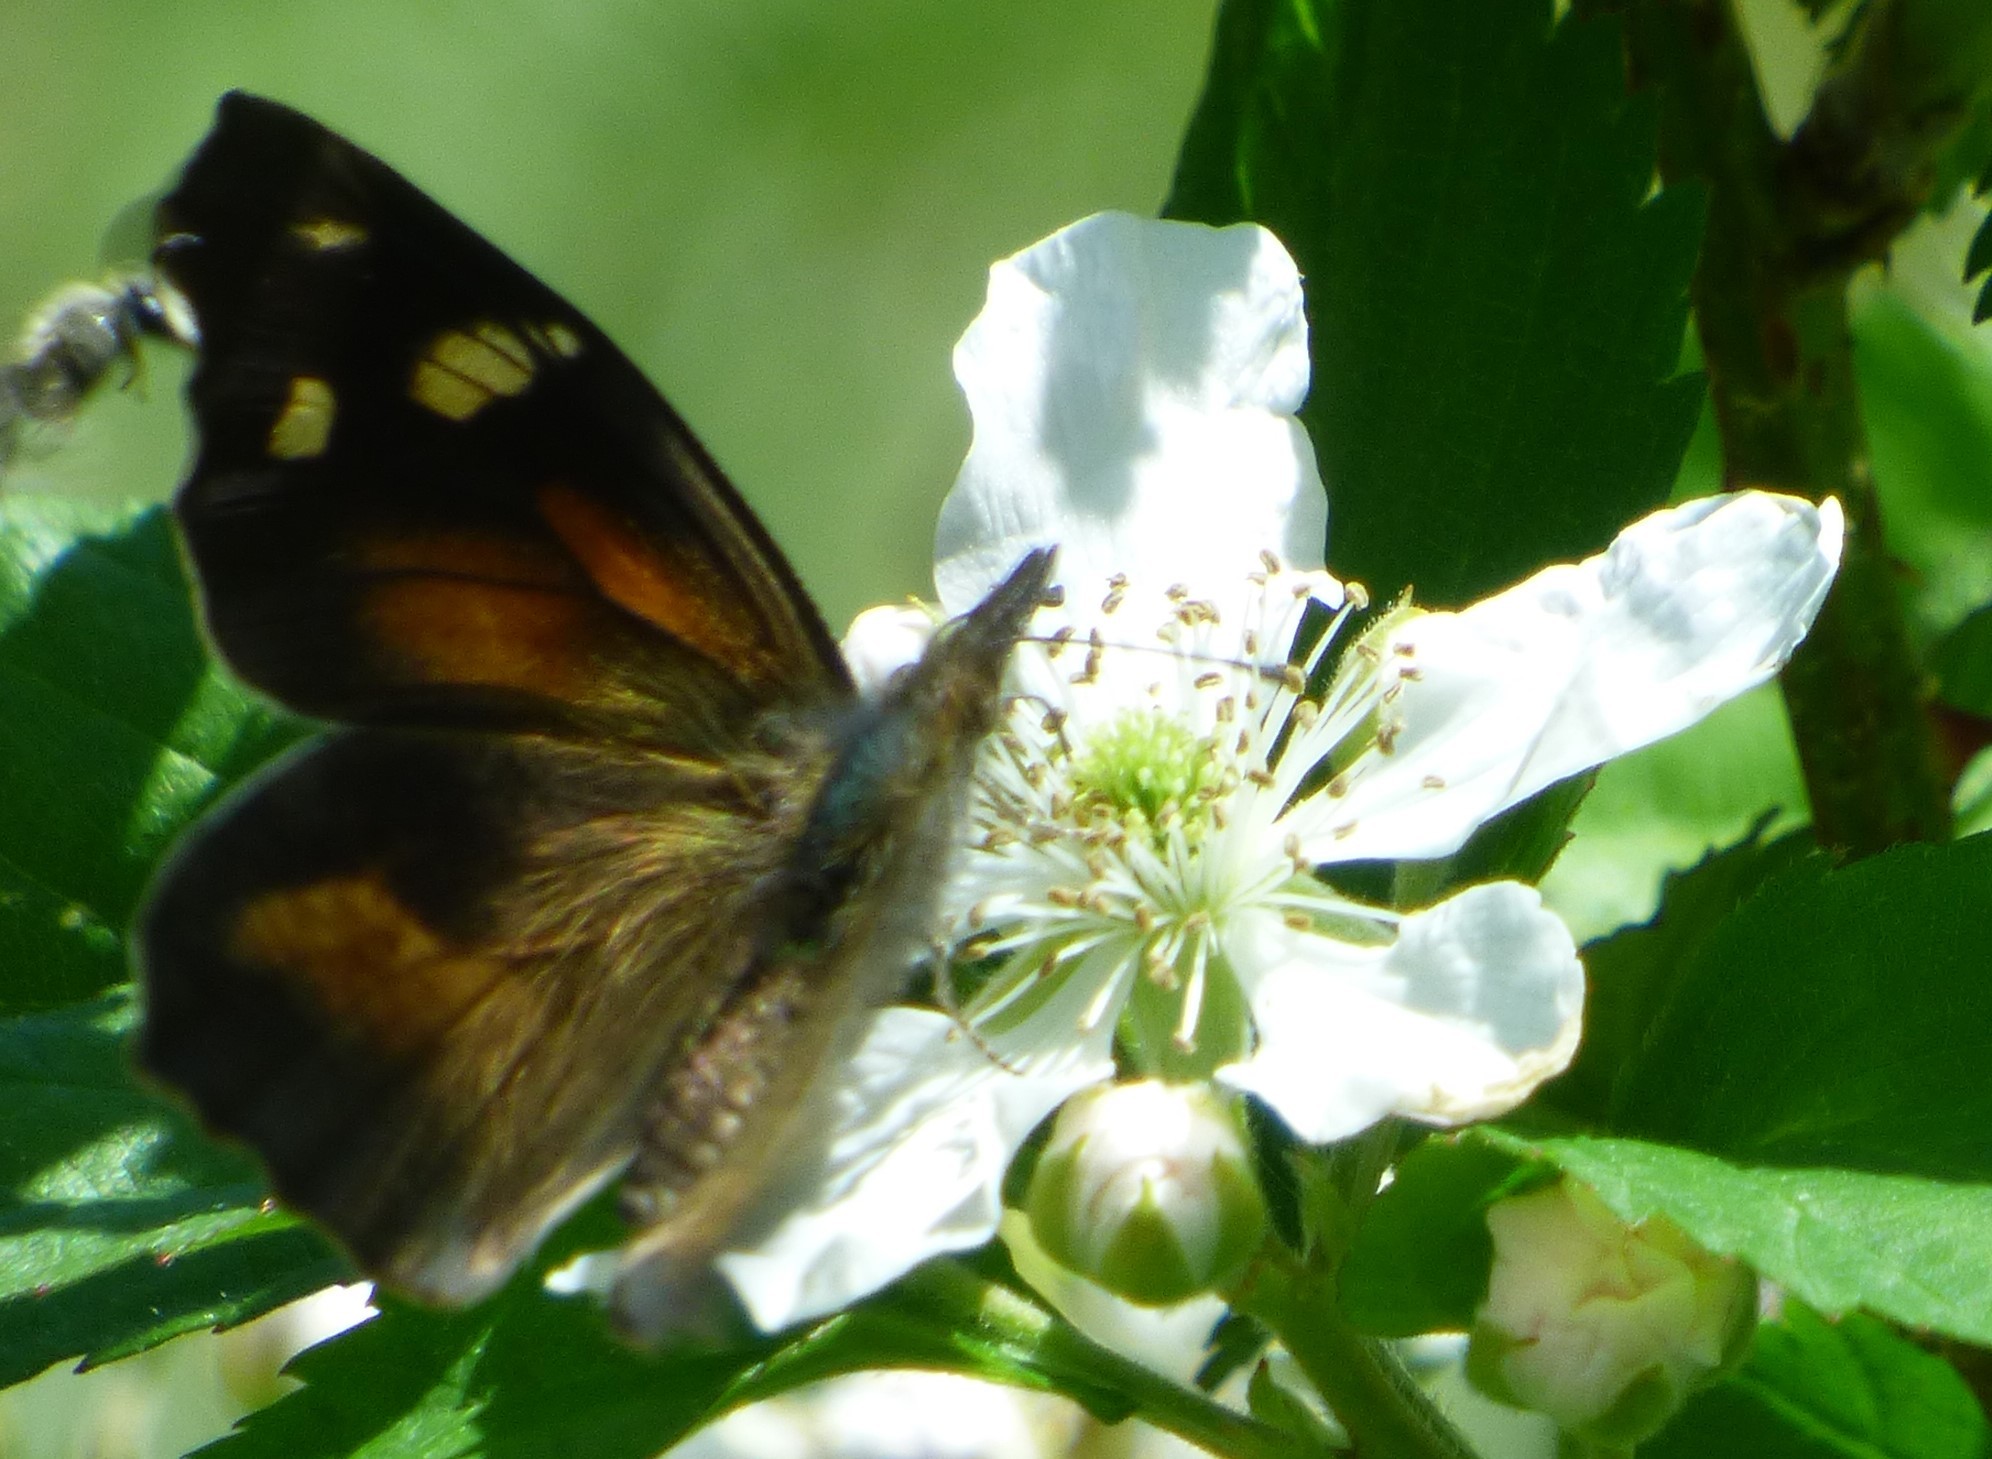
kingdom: Animalia
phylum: Arthropoda
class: Insecta
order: Lepidoptera
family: Nymphalidae
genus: Libytheana
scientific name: Libytheana carinenta
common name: American snout
